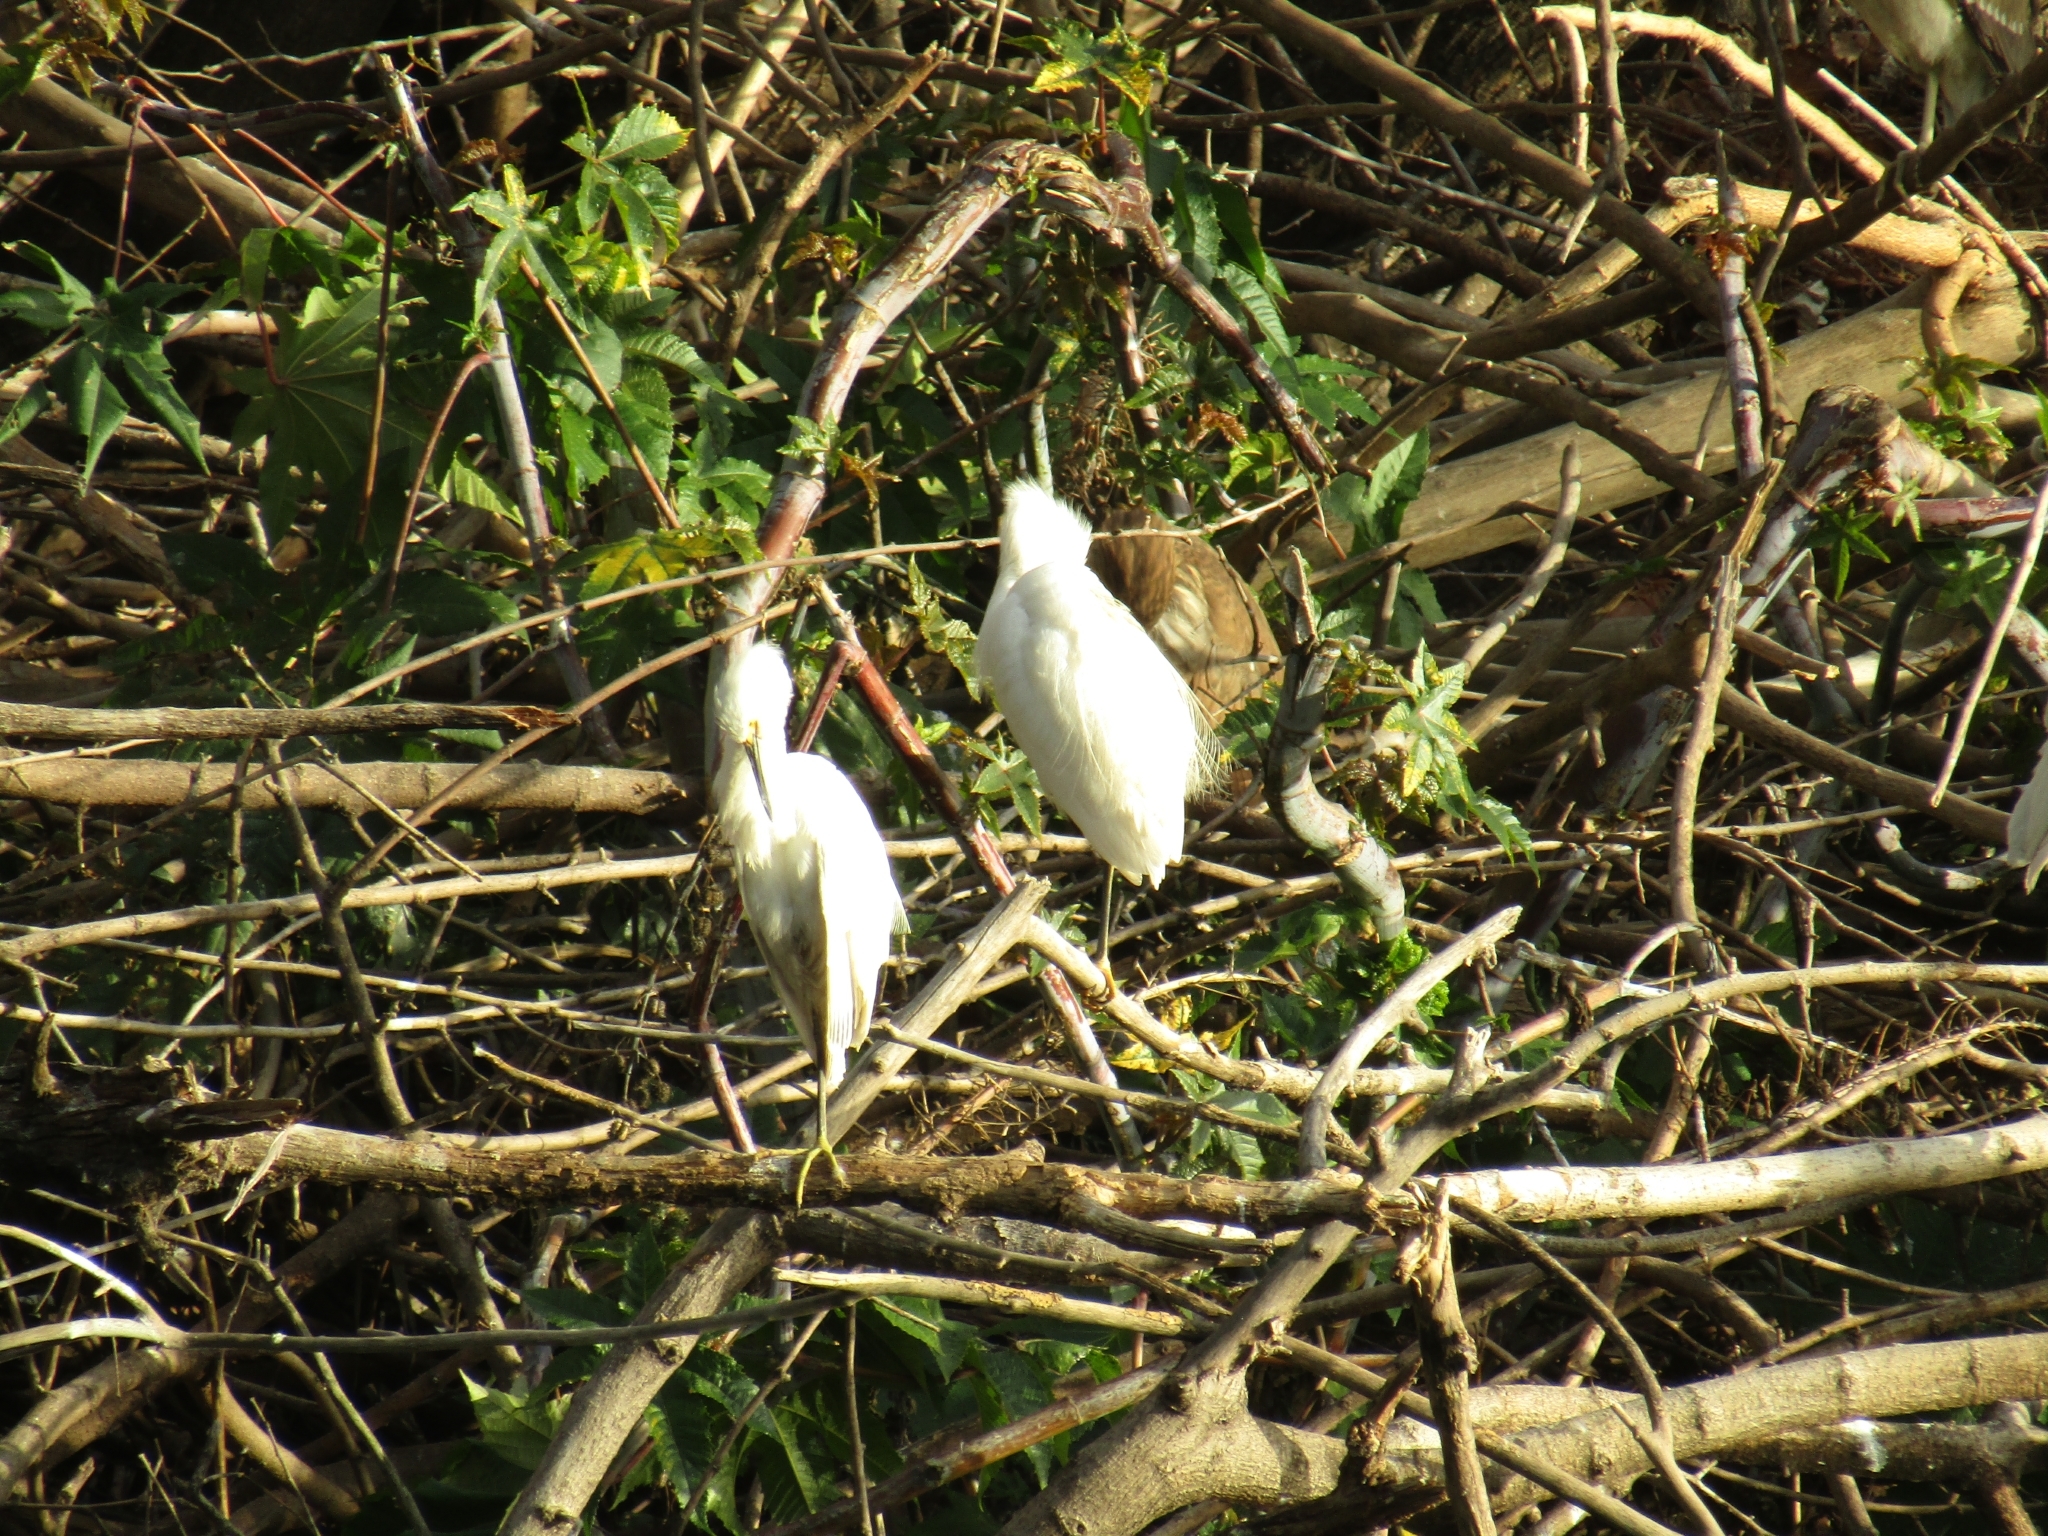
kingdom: Animalia
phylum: Chordata
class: Aves
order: Pelecaniformes
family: Ardeidae
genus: Egretta
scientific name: Egretta thula
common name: Snowy egret
